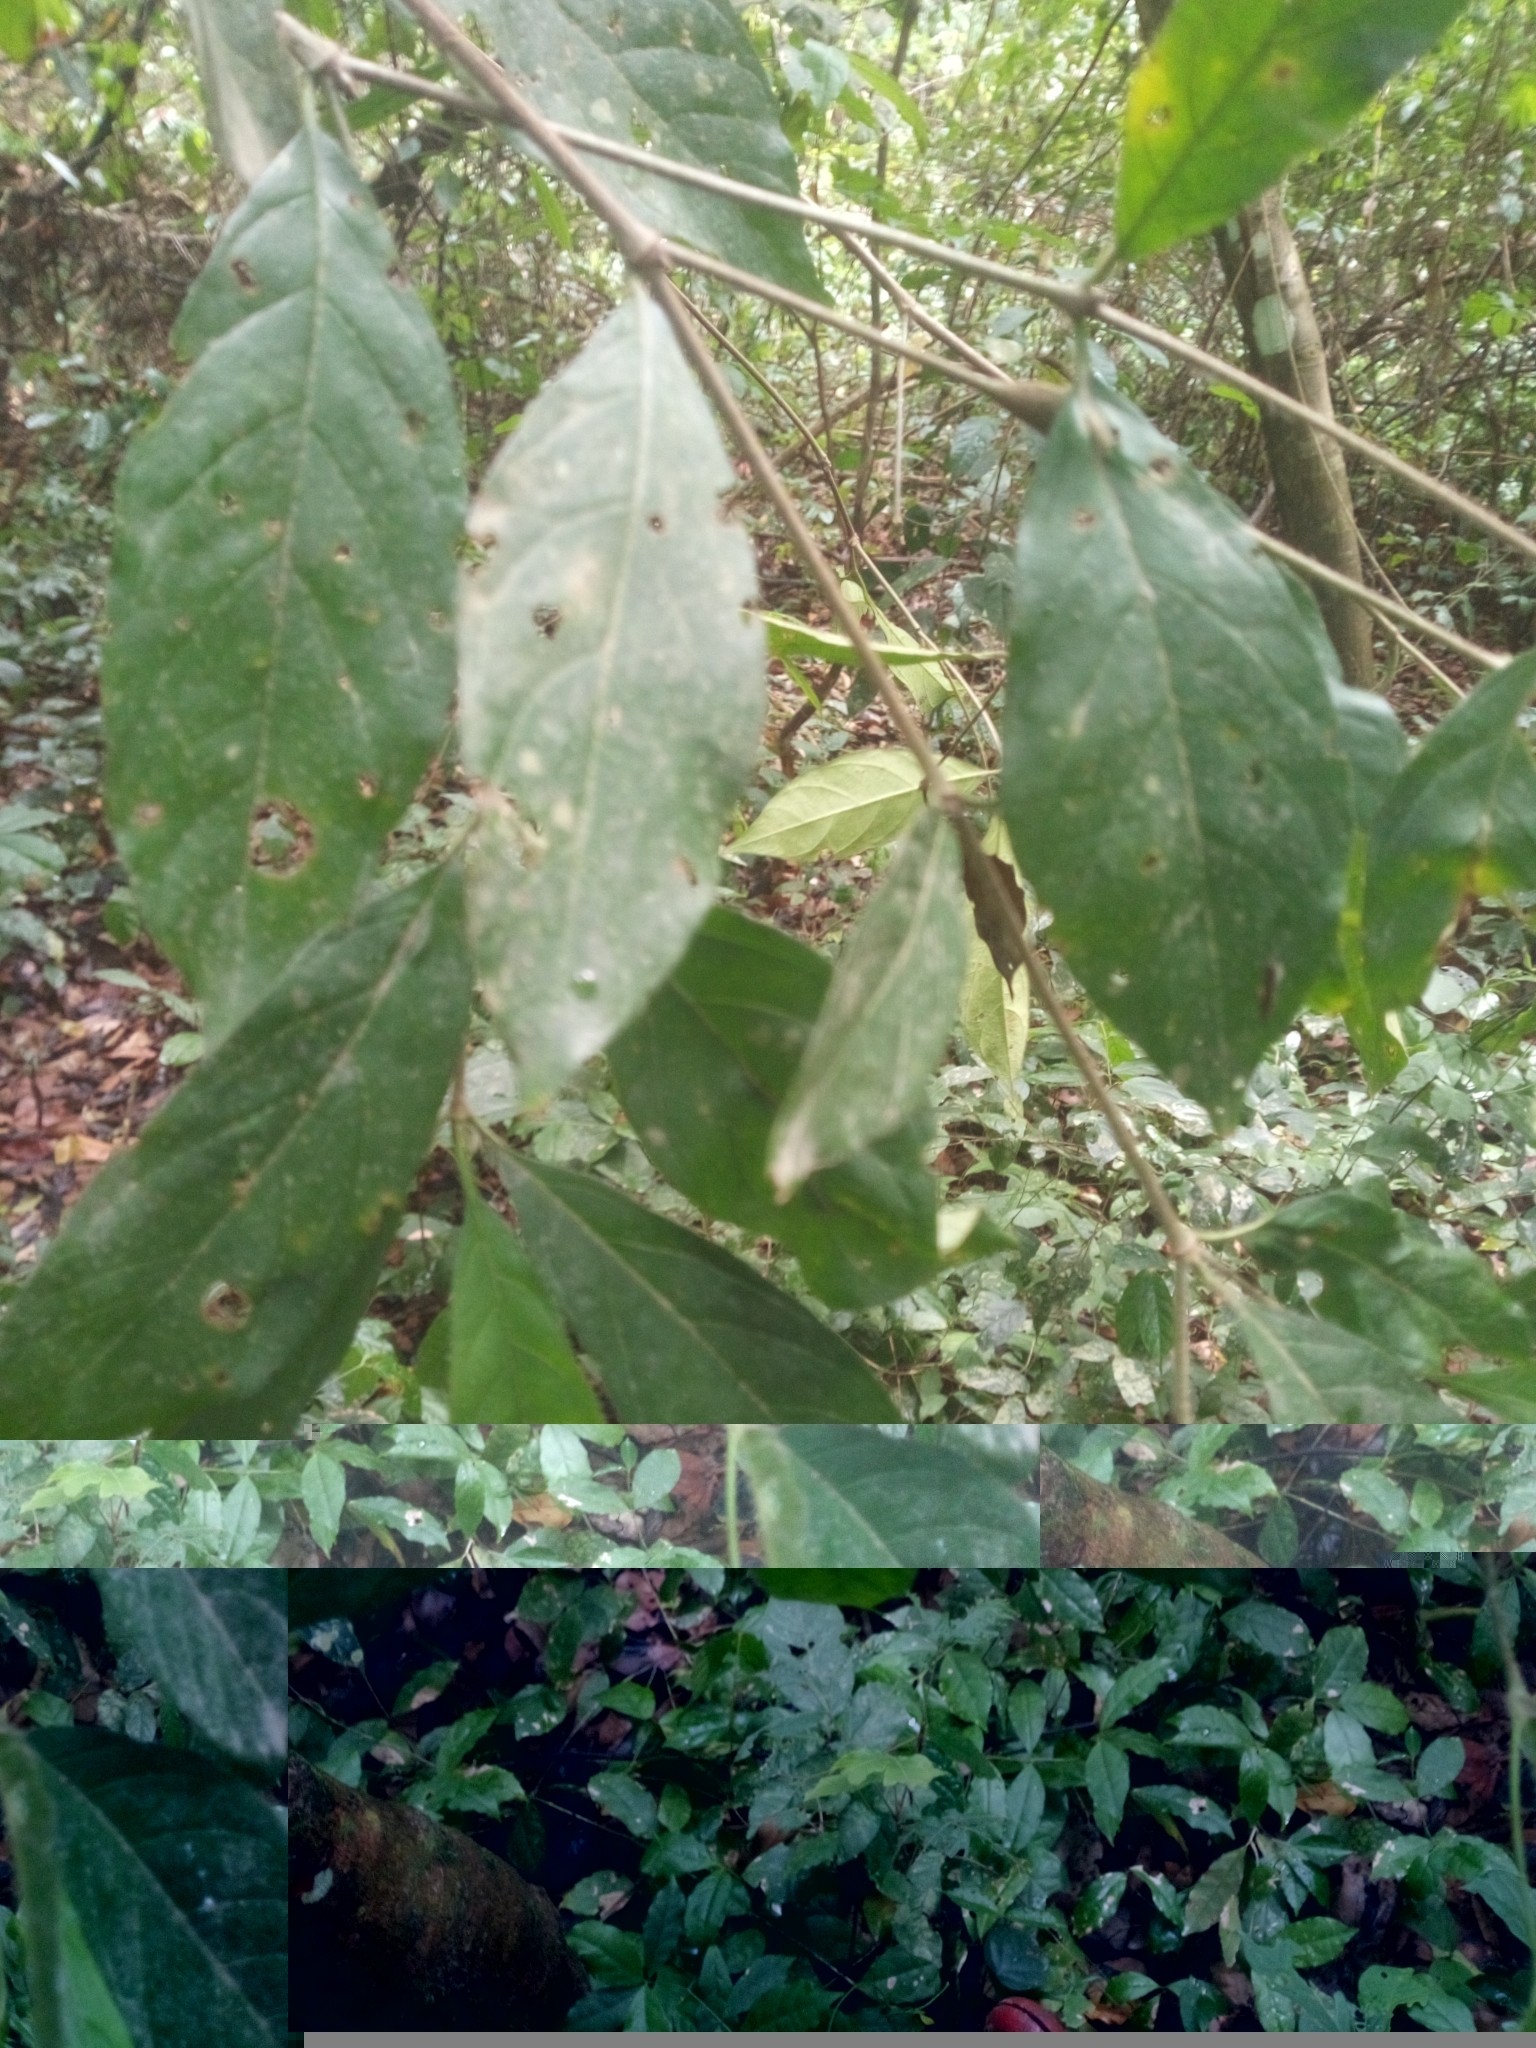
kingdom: Plantae
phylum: Tracheophyta
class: Magnoliopsida
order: Gentianales
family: Rubiaceae
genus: Rothmannia
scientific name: Rothmannia urcelliformis
